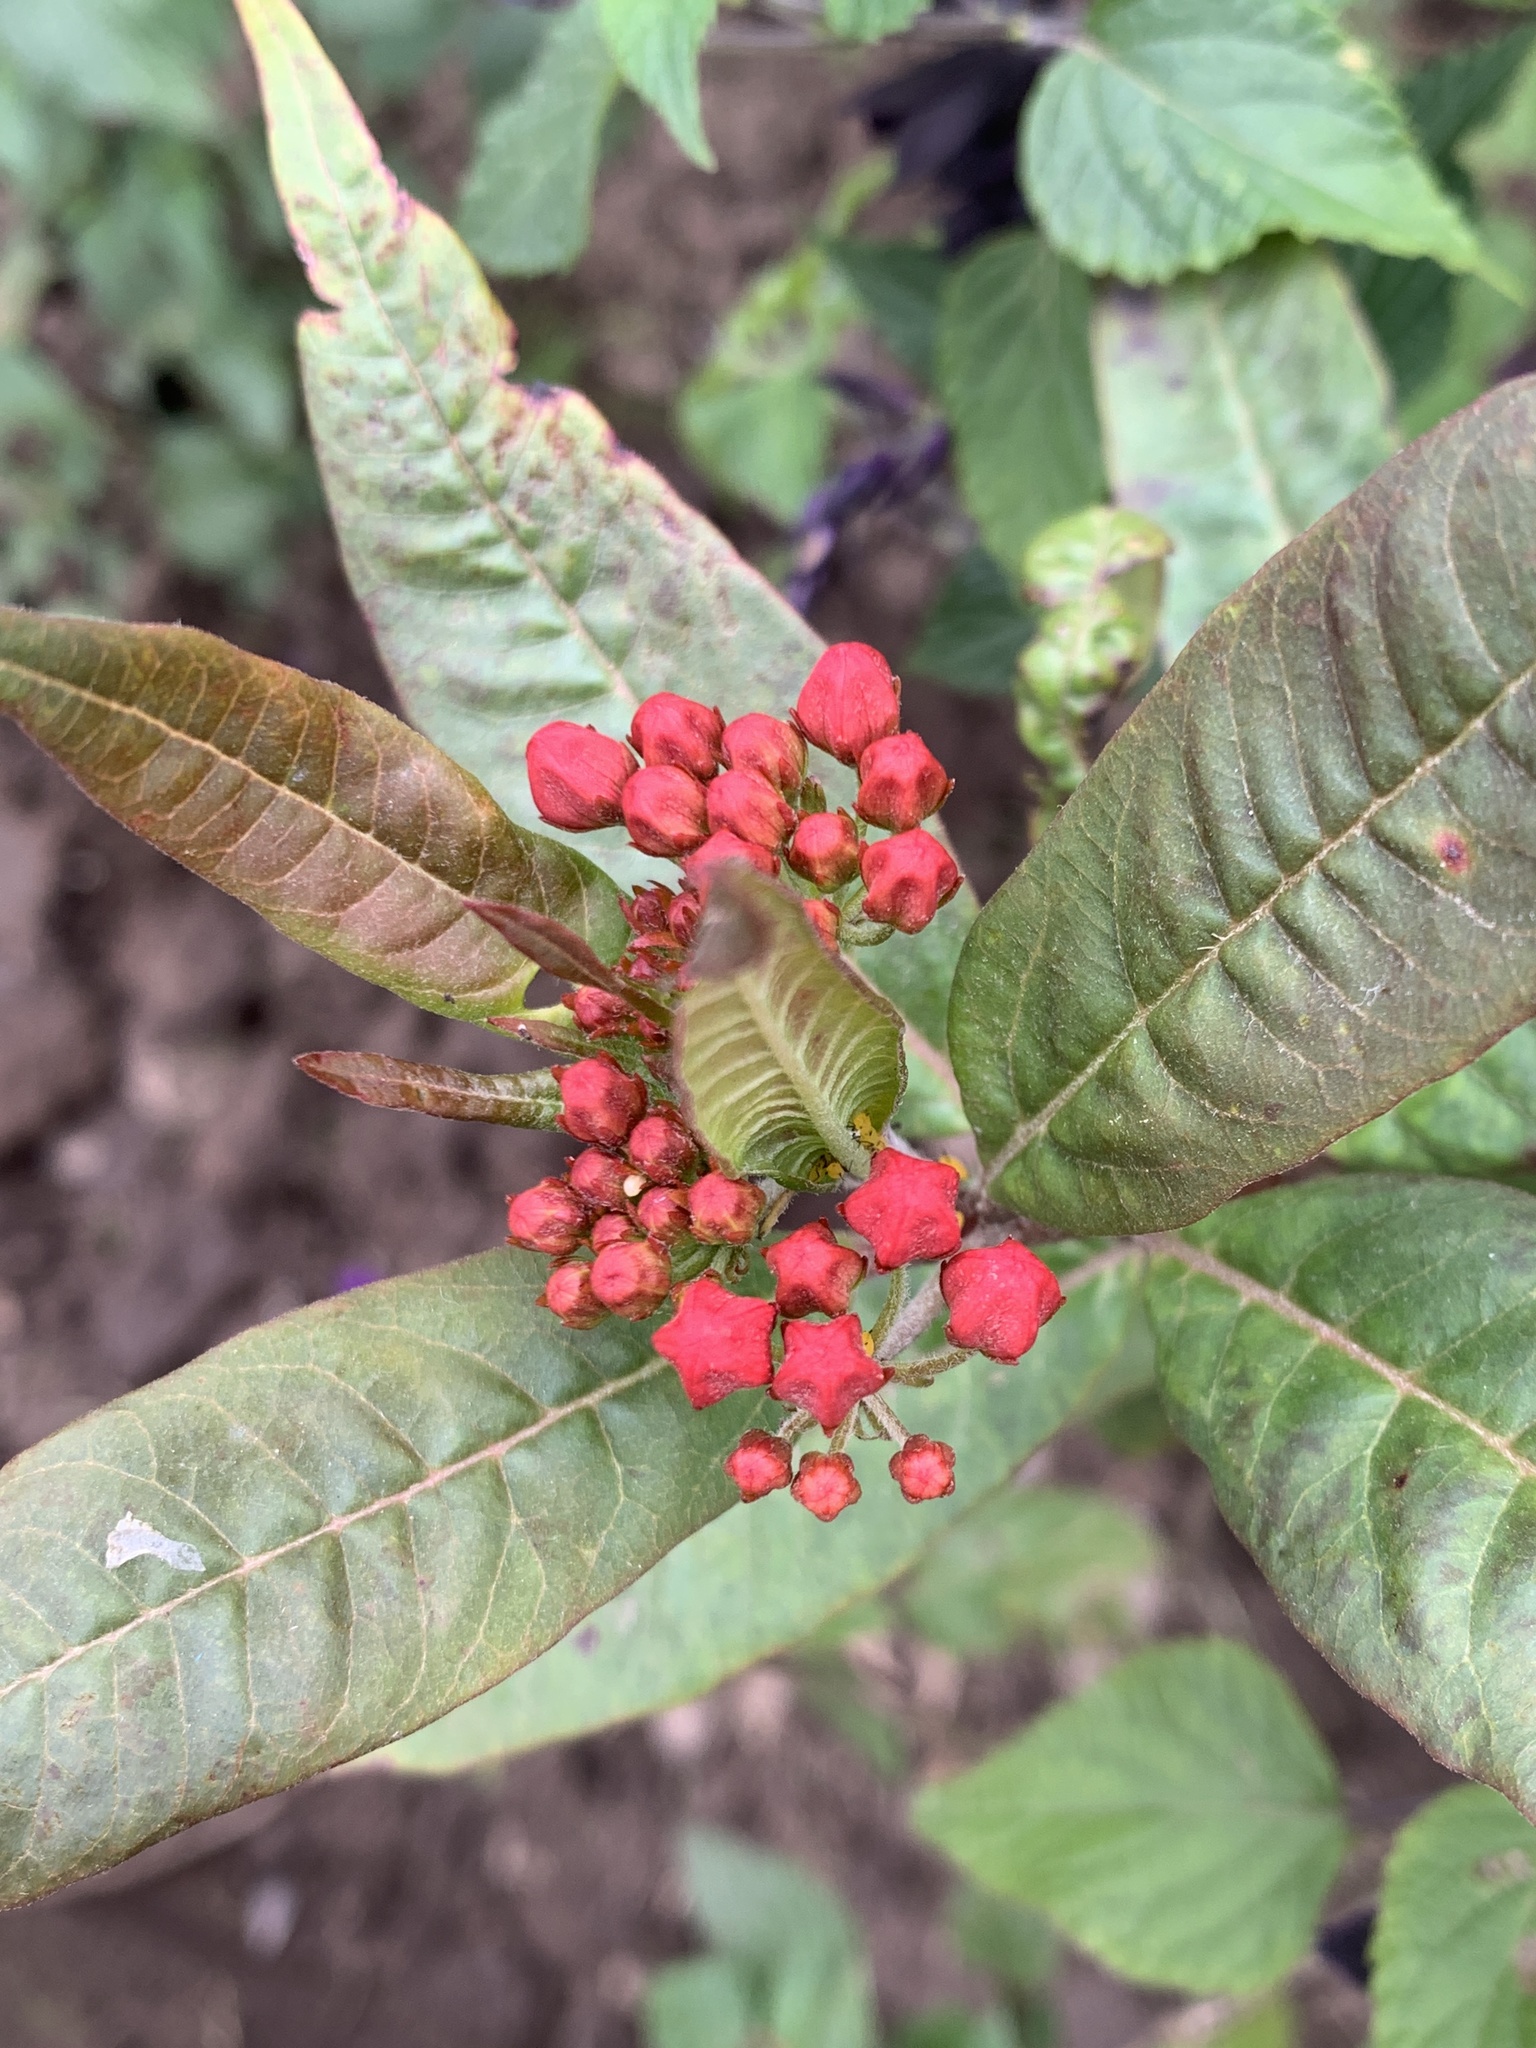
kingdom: Plantae
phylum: Tracheophyta
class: Magnoliopsida
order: Gentianales
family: Apocynaceae
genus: Asclepias
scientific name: Asclepias curassavica
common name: Bloodflower
